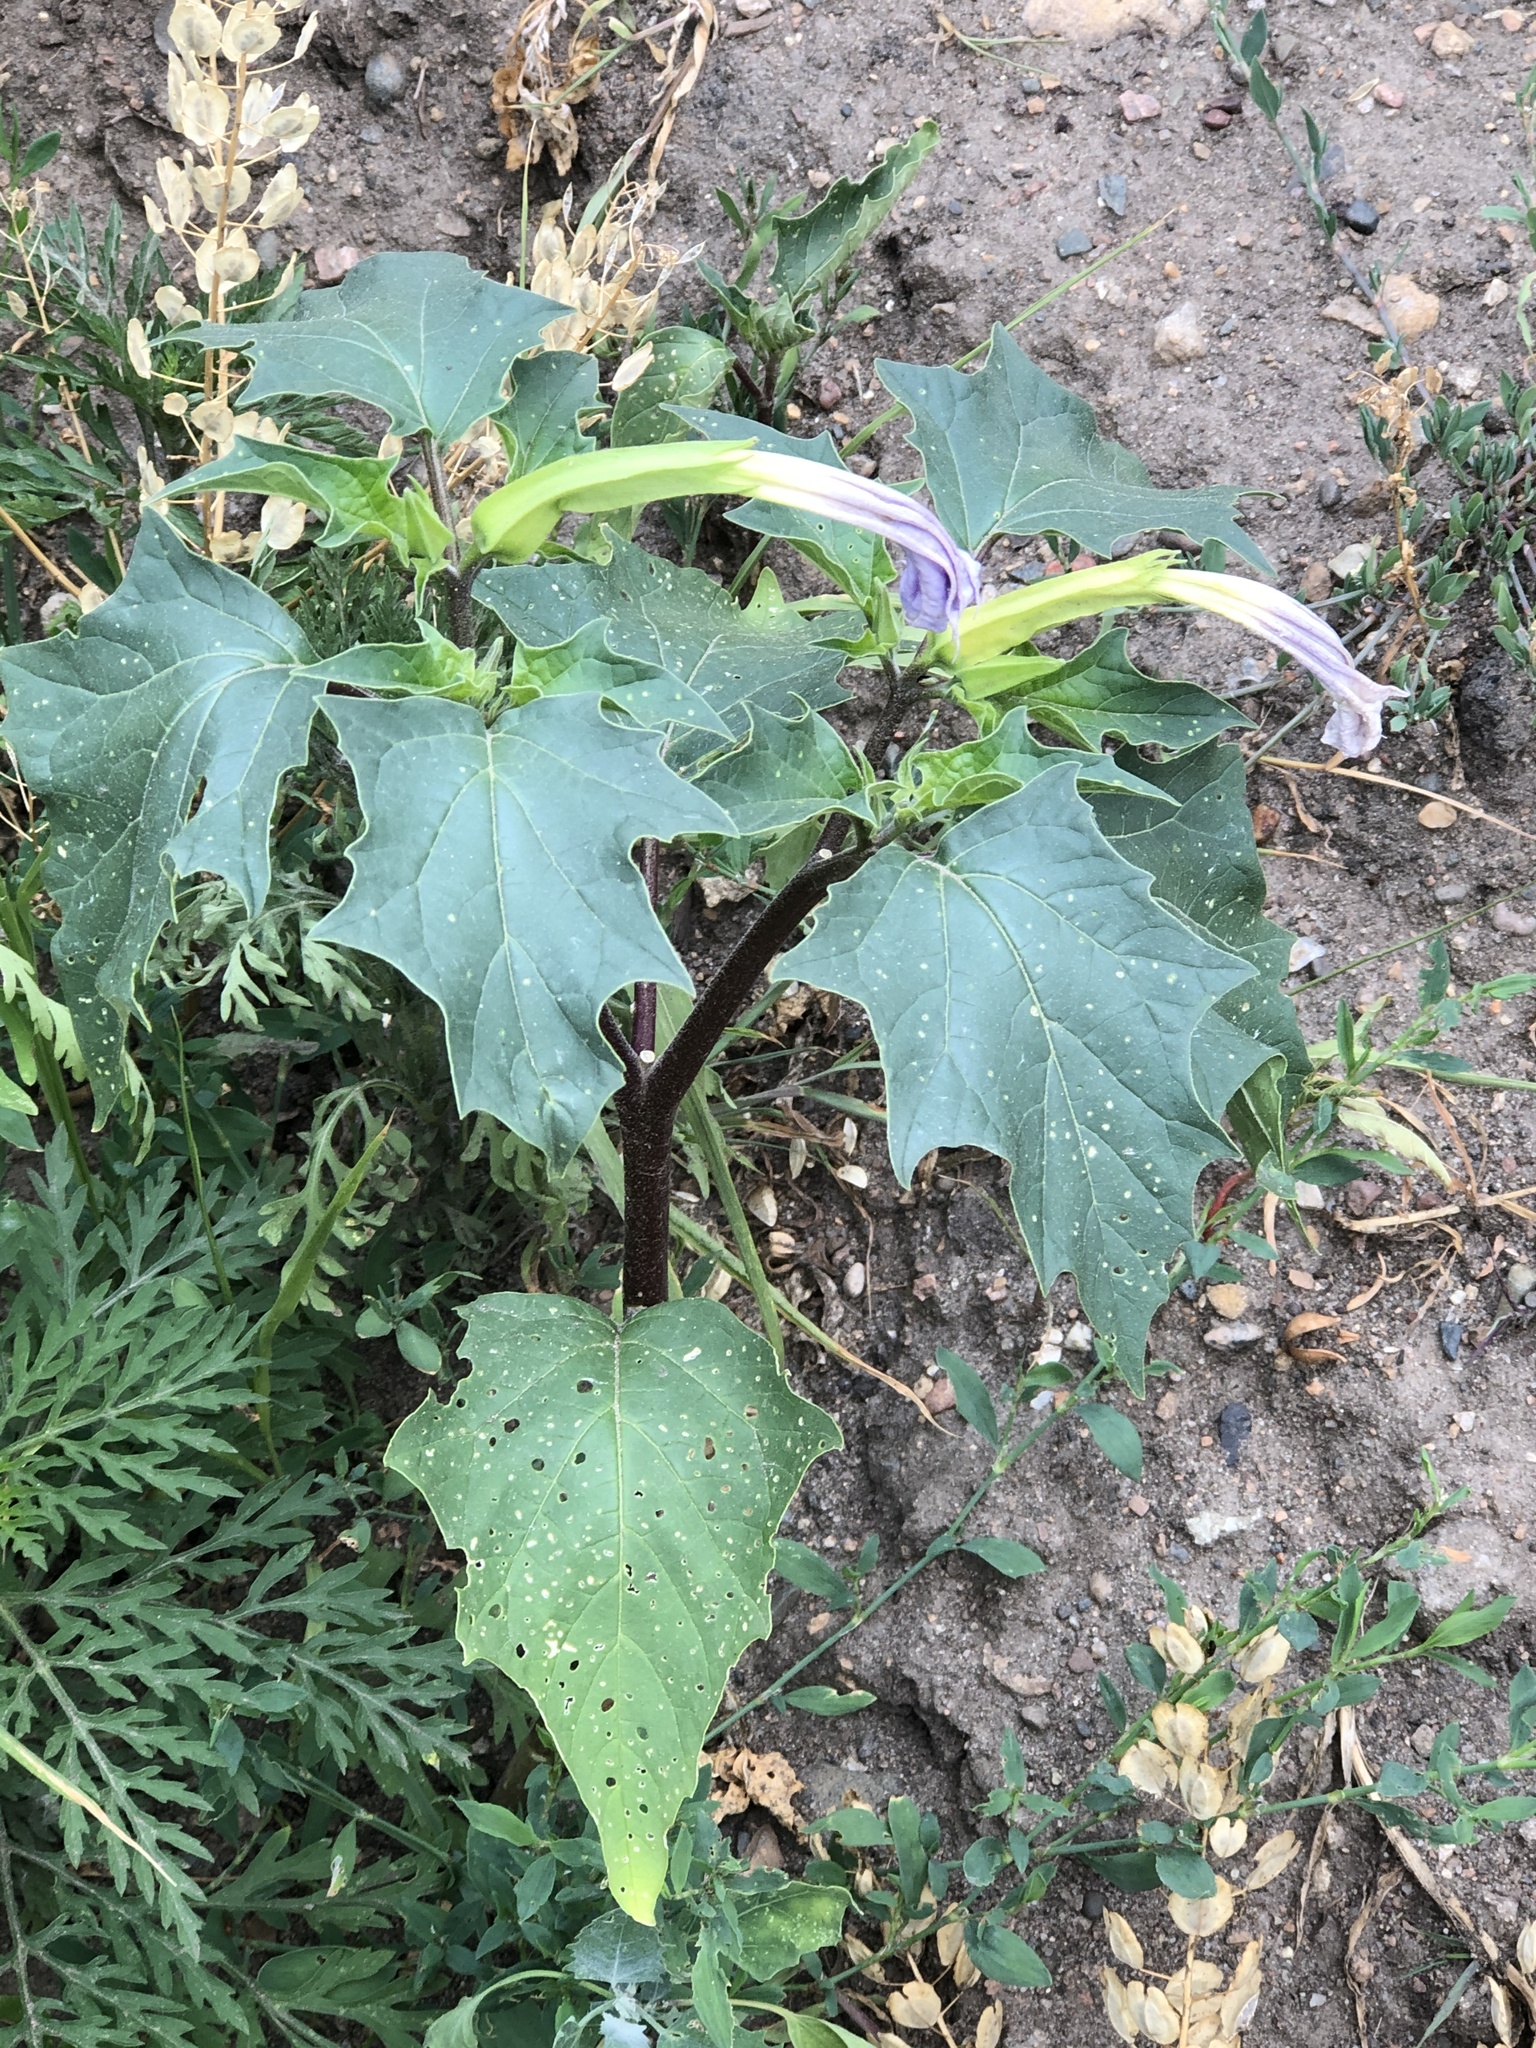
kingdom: Plantae
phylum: Tracheophyta
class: Magnoliopsida
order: Solanales
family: Solanaceae
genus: Datura
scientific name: Datura stramonium
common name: Thorn-apple
